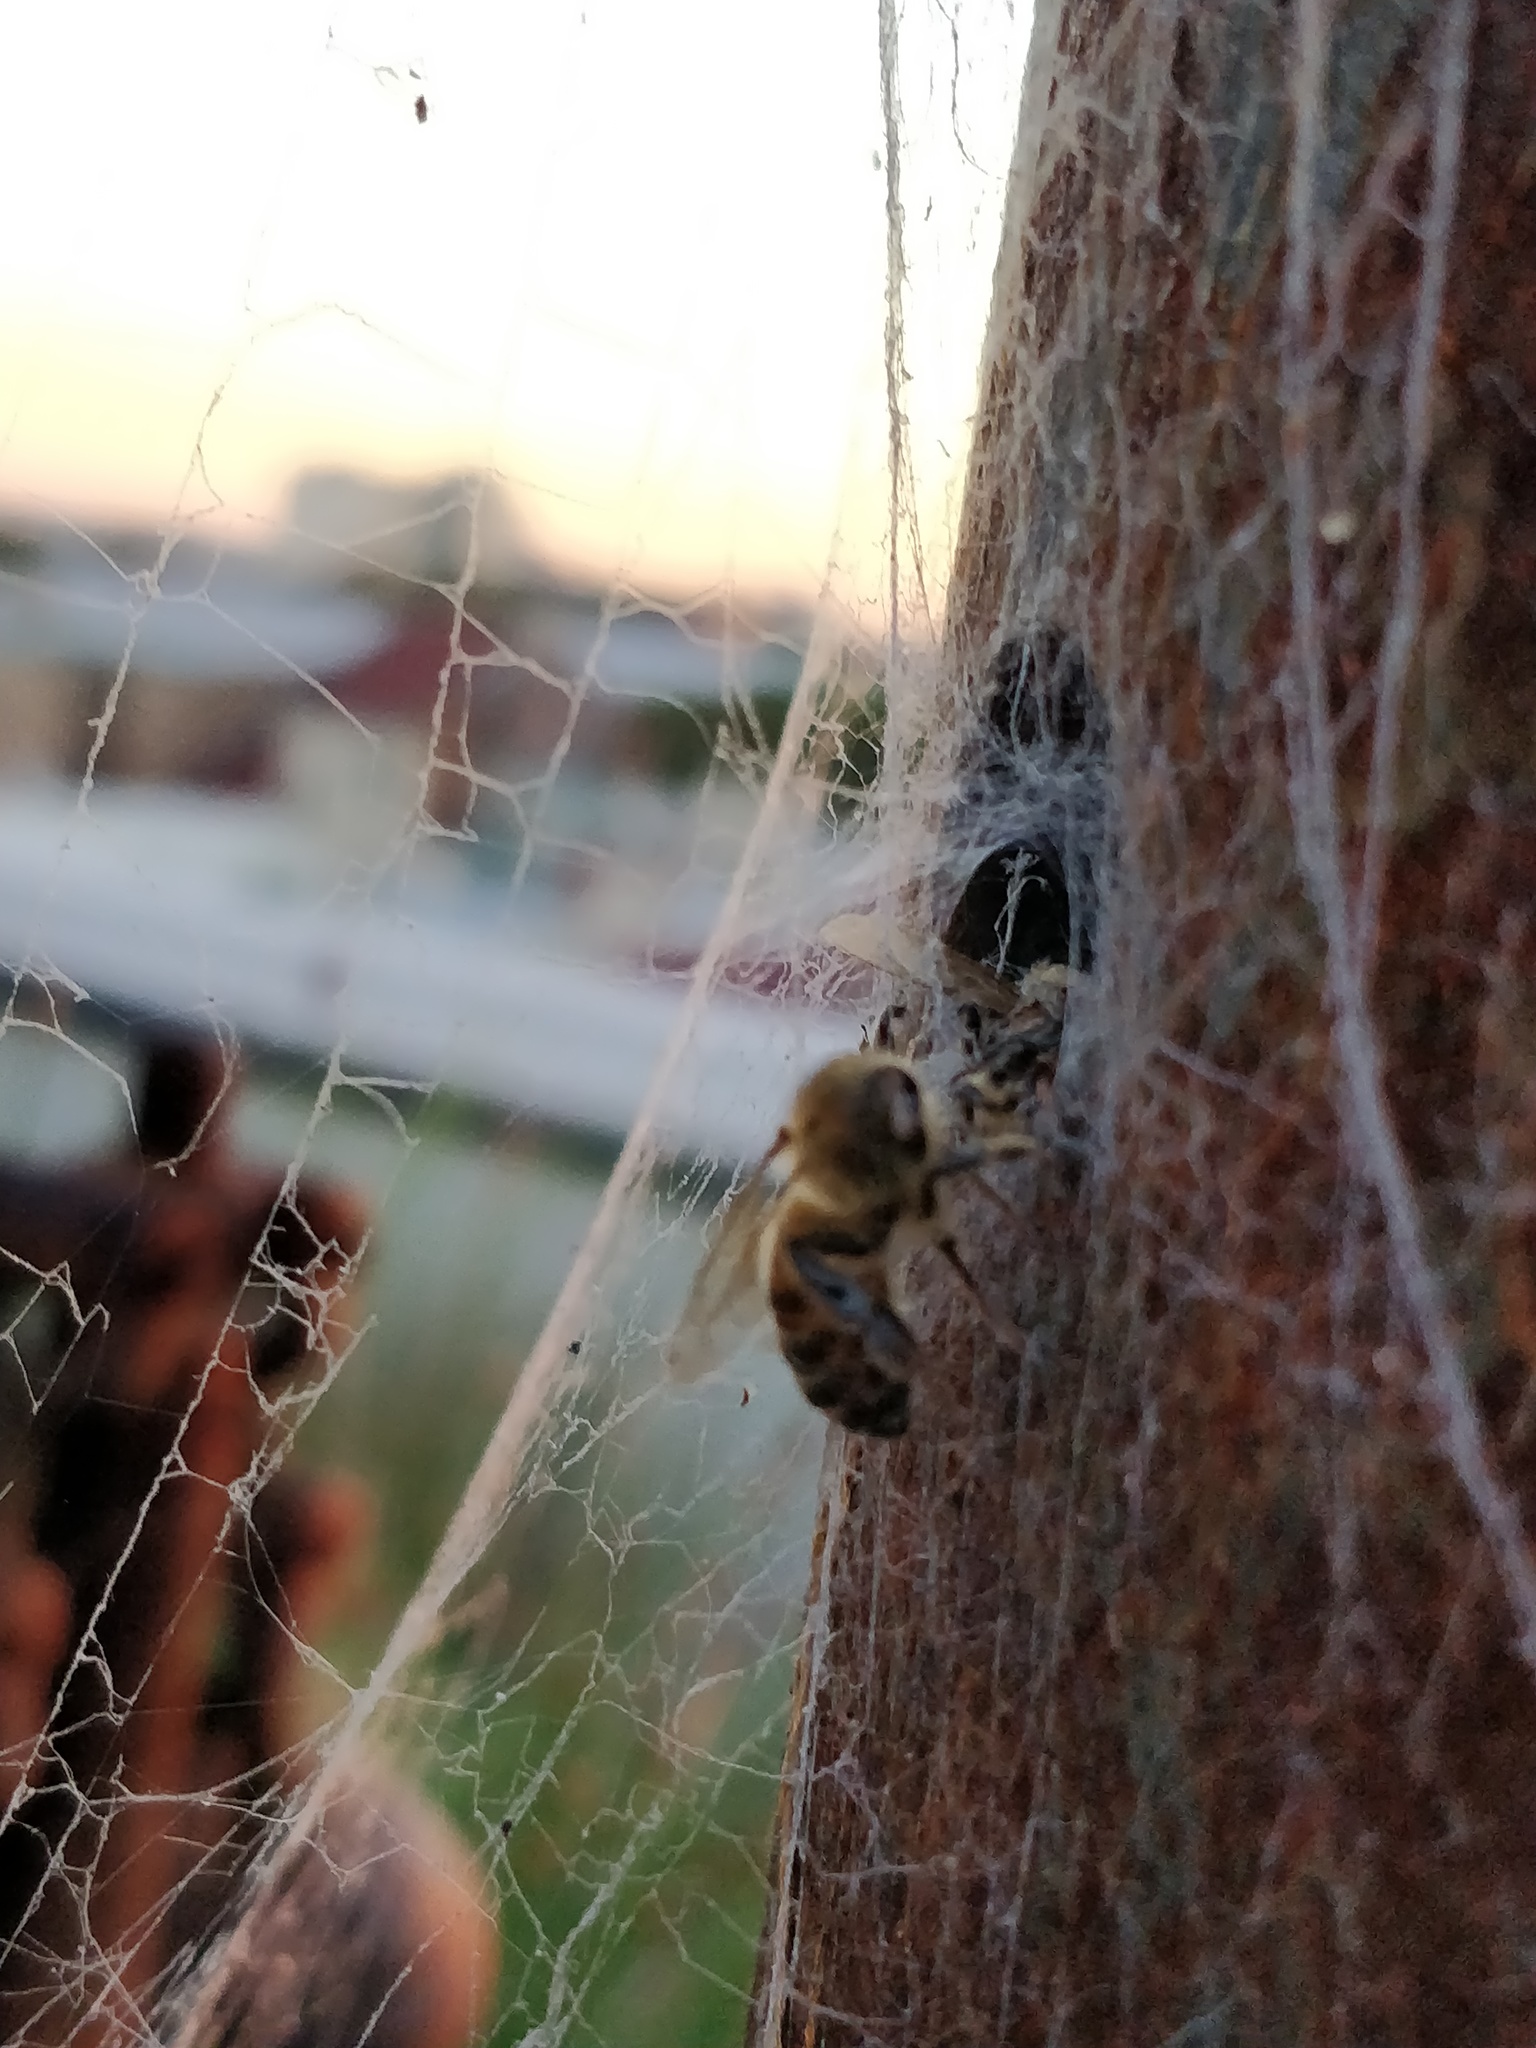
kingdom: Animalia
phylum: Arthropoda
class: Insecta
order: Hymenoptera
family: Apidae
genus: Apis
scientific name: Apis mellifera
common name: Honey bee
